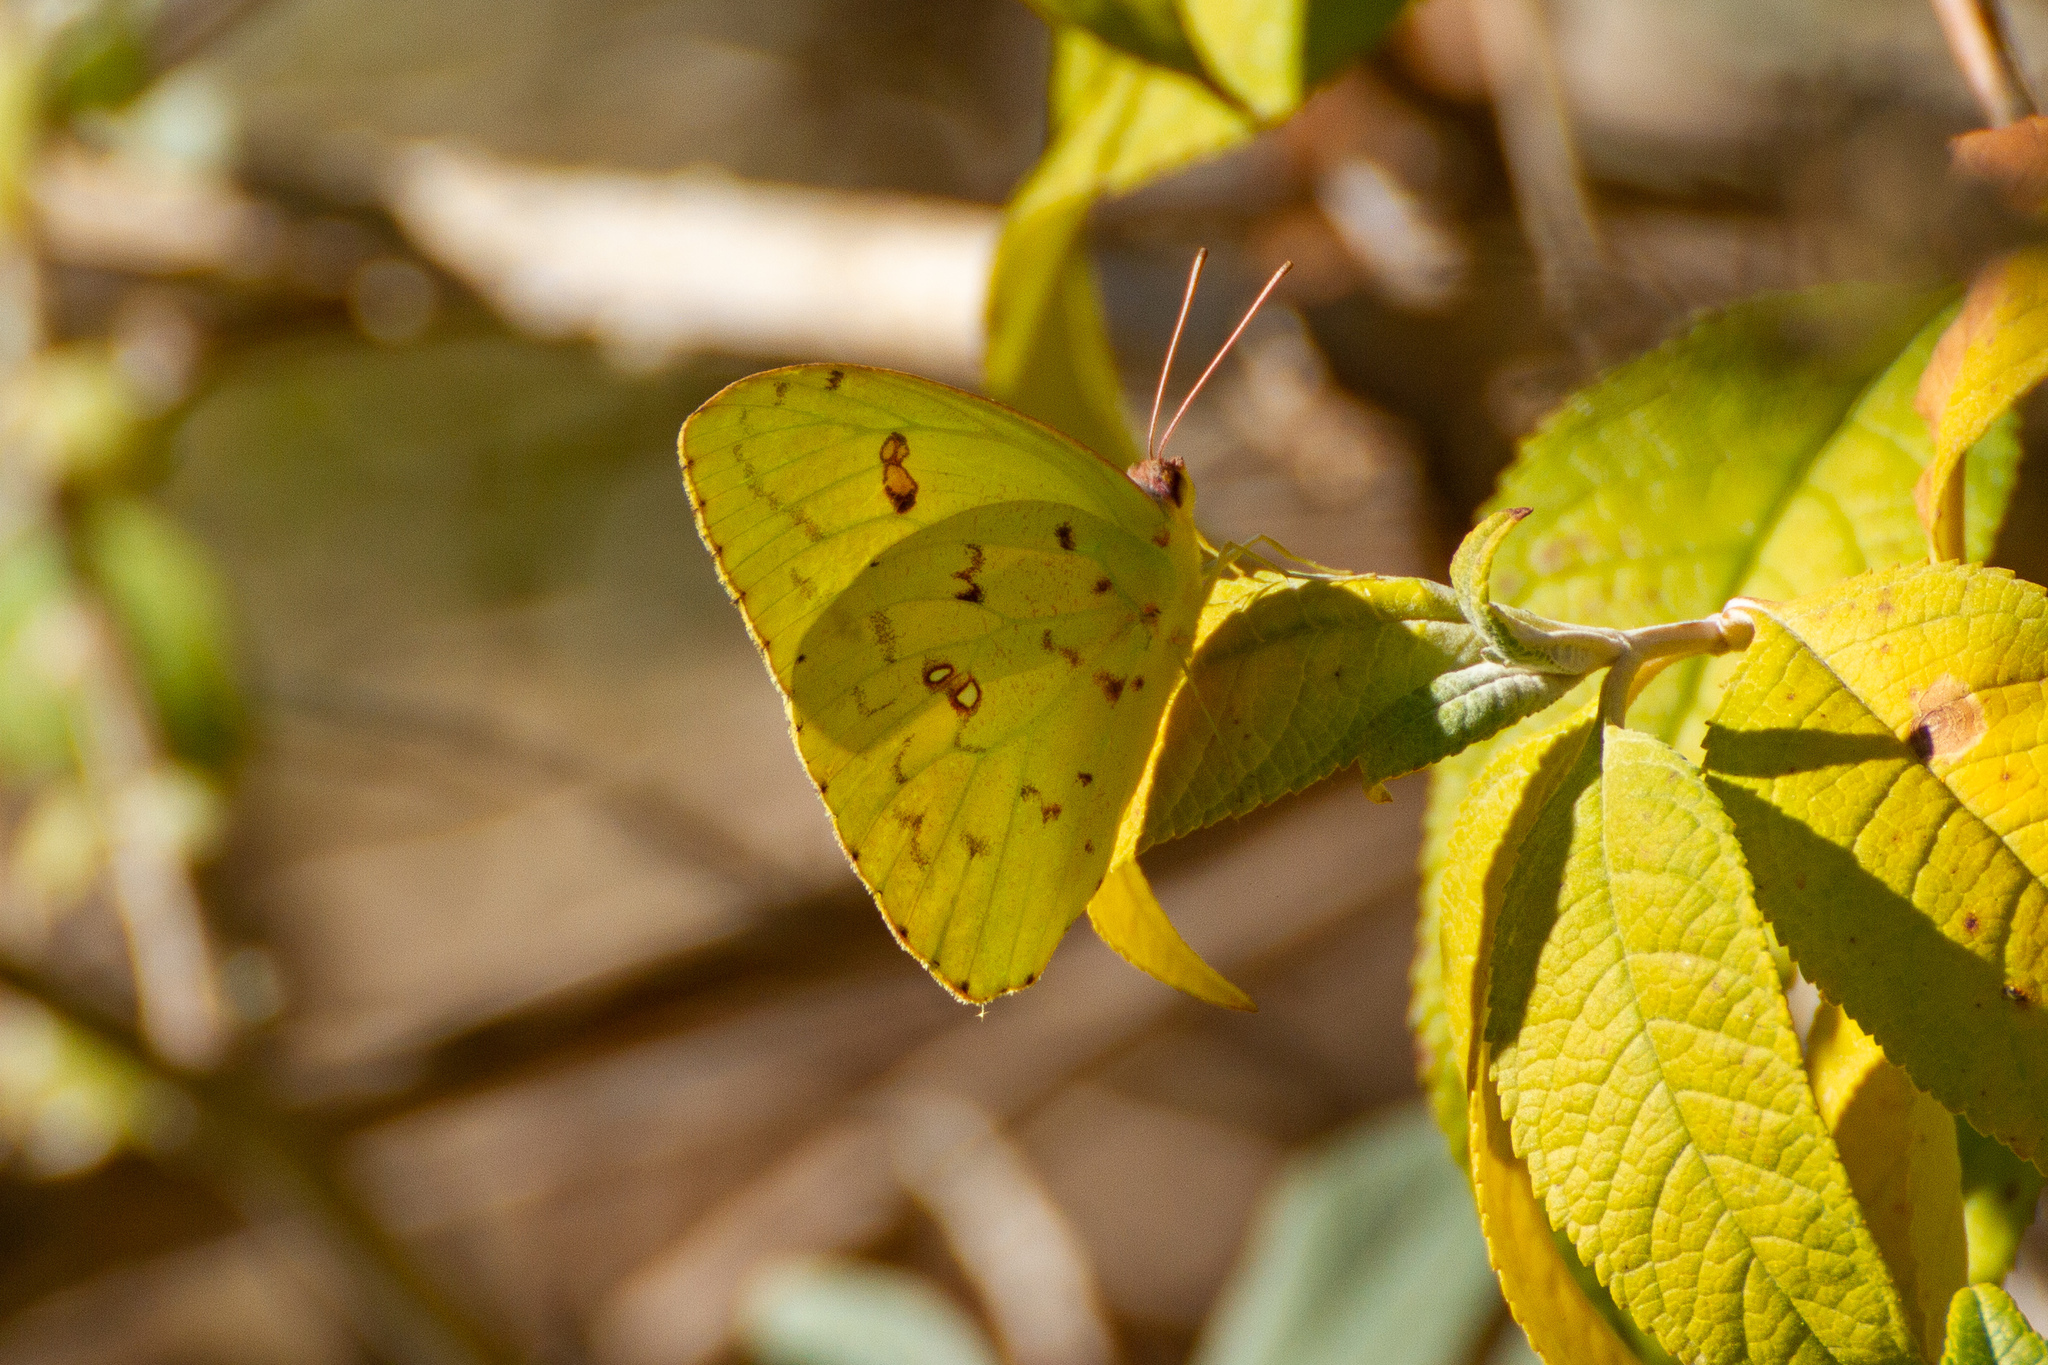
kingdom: Animalia
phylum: Arthropoda
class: Insecta
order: Lepidoptera
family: Pieridae
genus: Phoebis
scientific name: Phoebis sennae
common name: Cloudless sulphur
